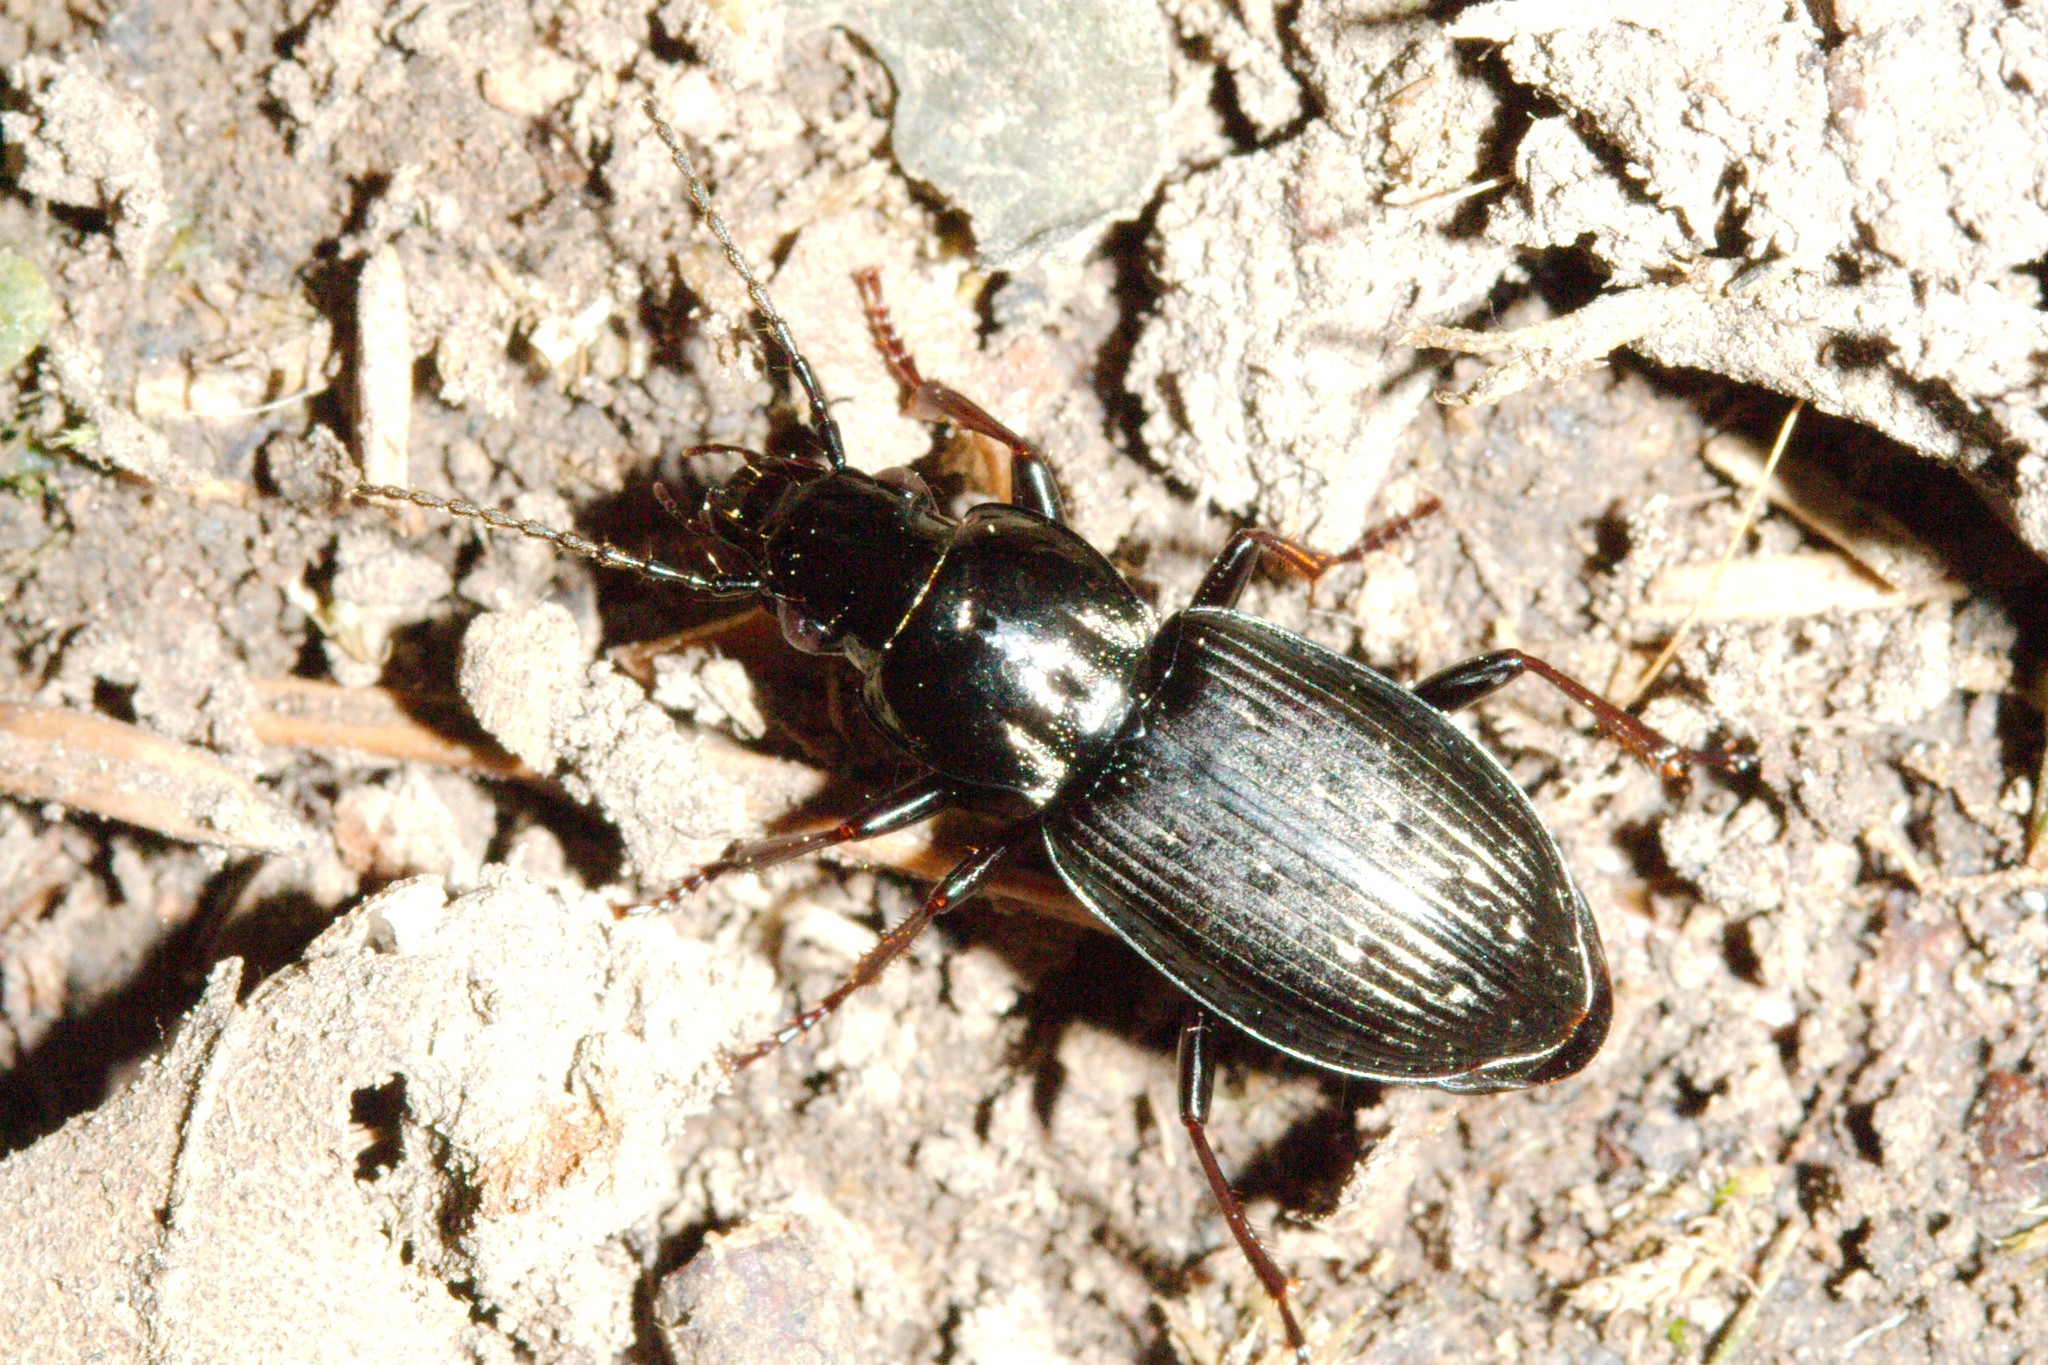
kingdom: Animalia
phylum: Arthropoda
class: Insecta
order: Coleoptera
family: Carabidae
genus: Pterostichus
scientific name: Pterostichus oblongopunctatus
